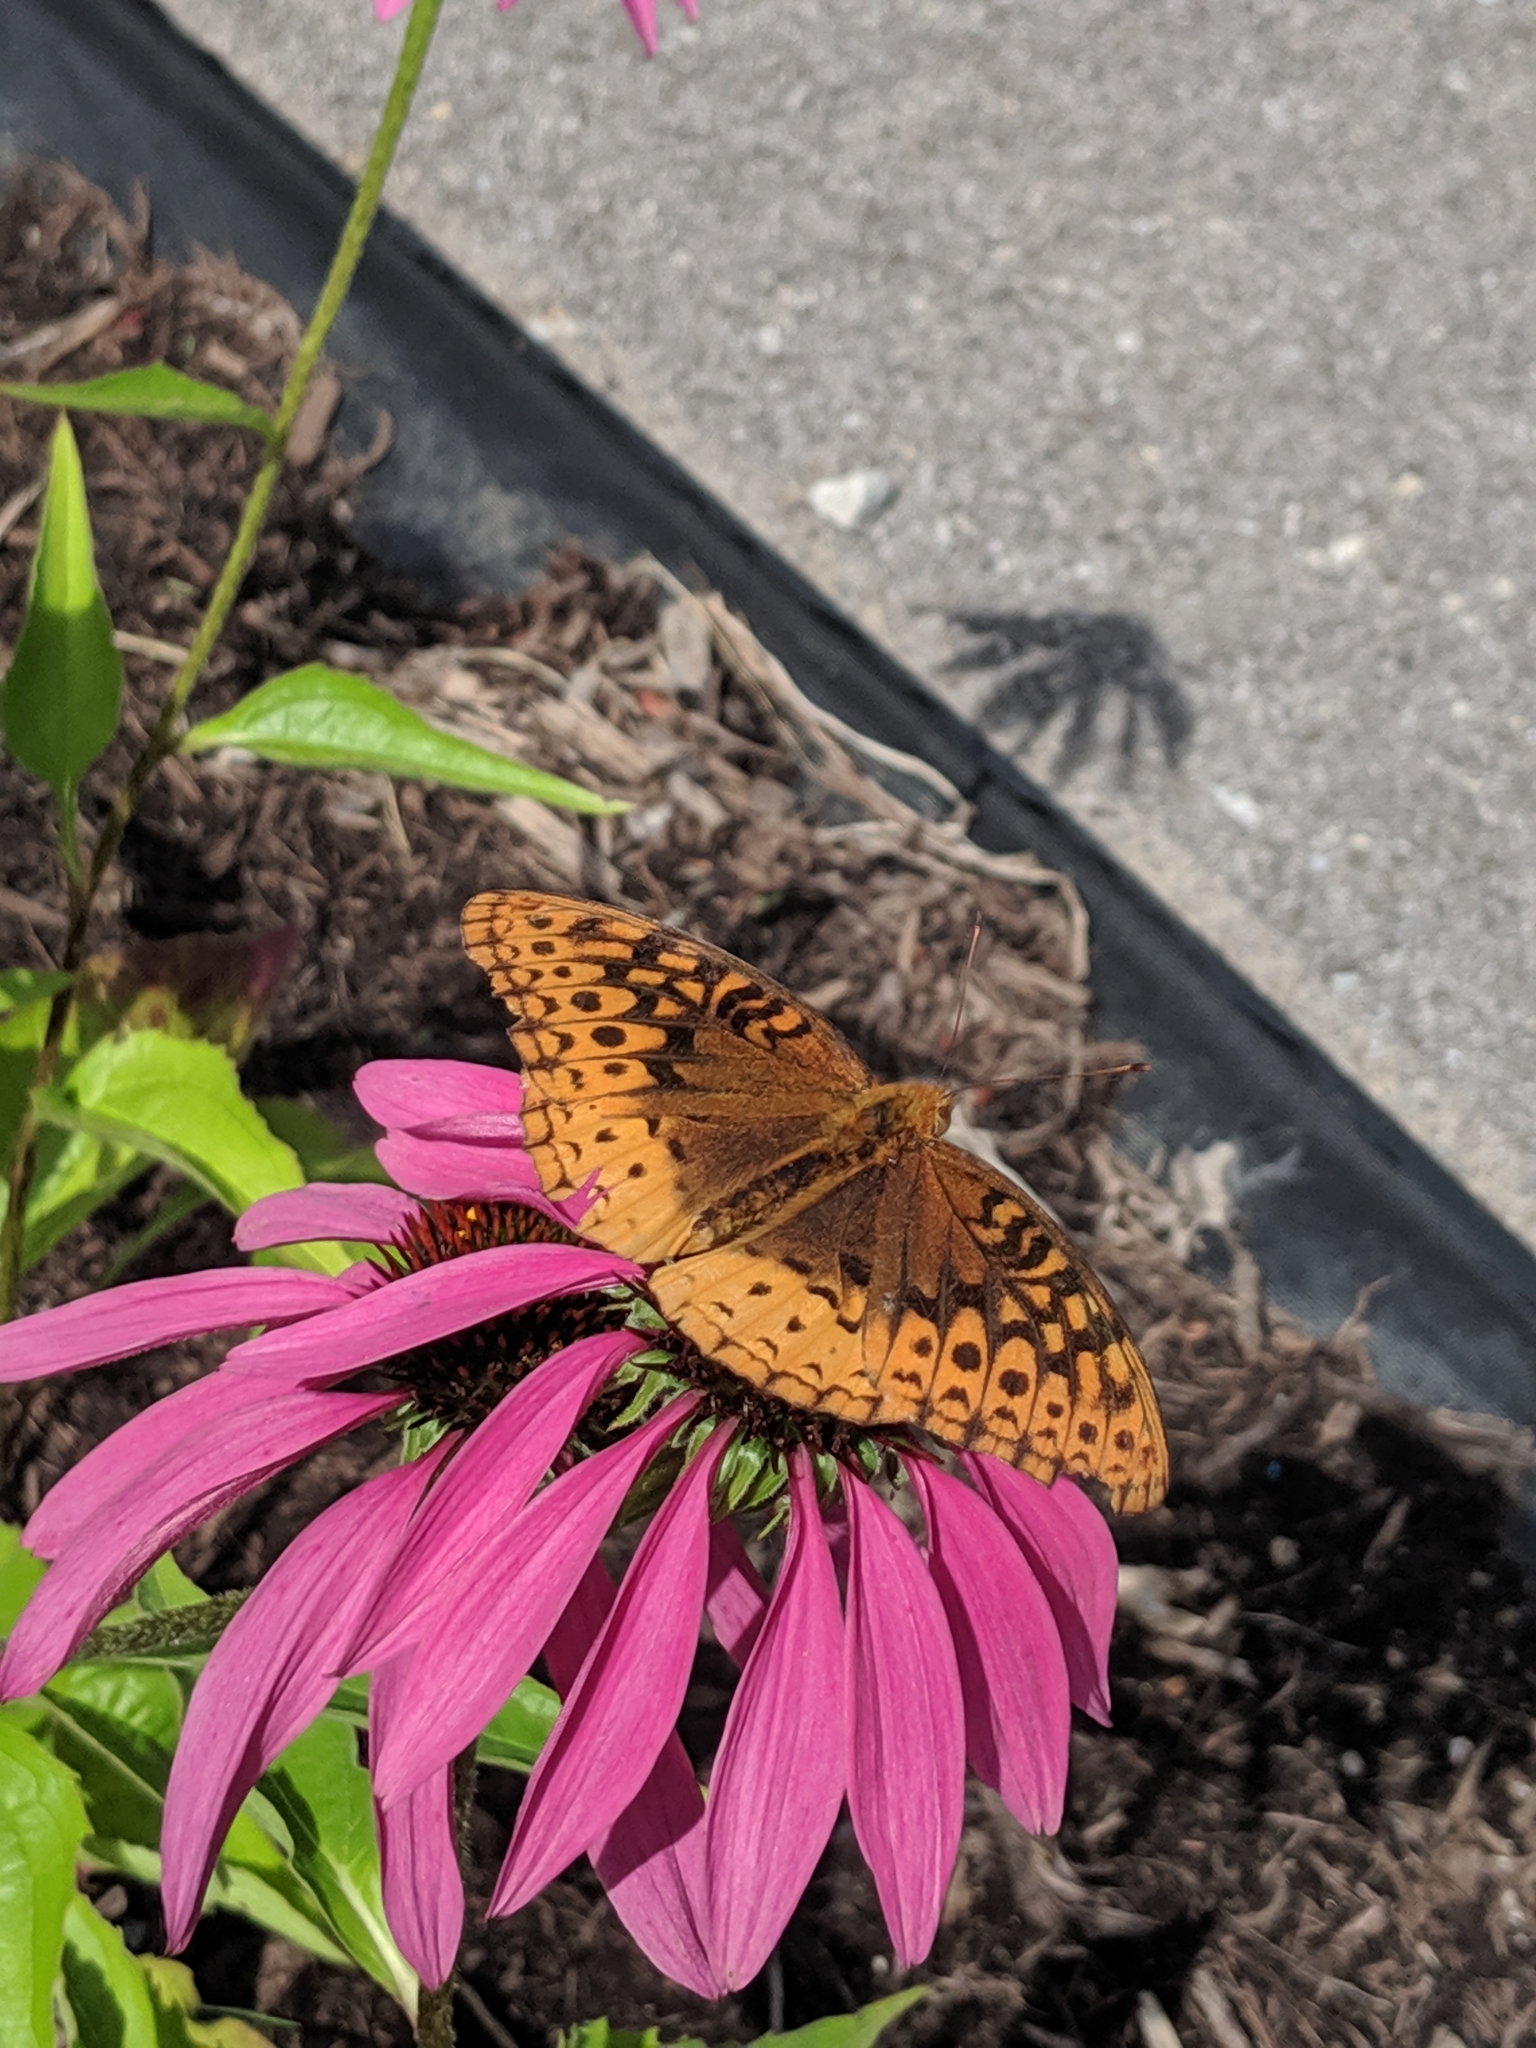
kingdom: Animalia
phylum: Arthropoda
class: Insecta
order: Lepidoptera
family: Nymphalidae
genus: Speyeria
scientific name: Speyeria cybele
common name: Great spangled fritillary
